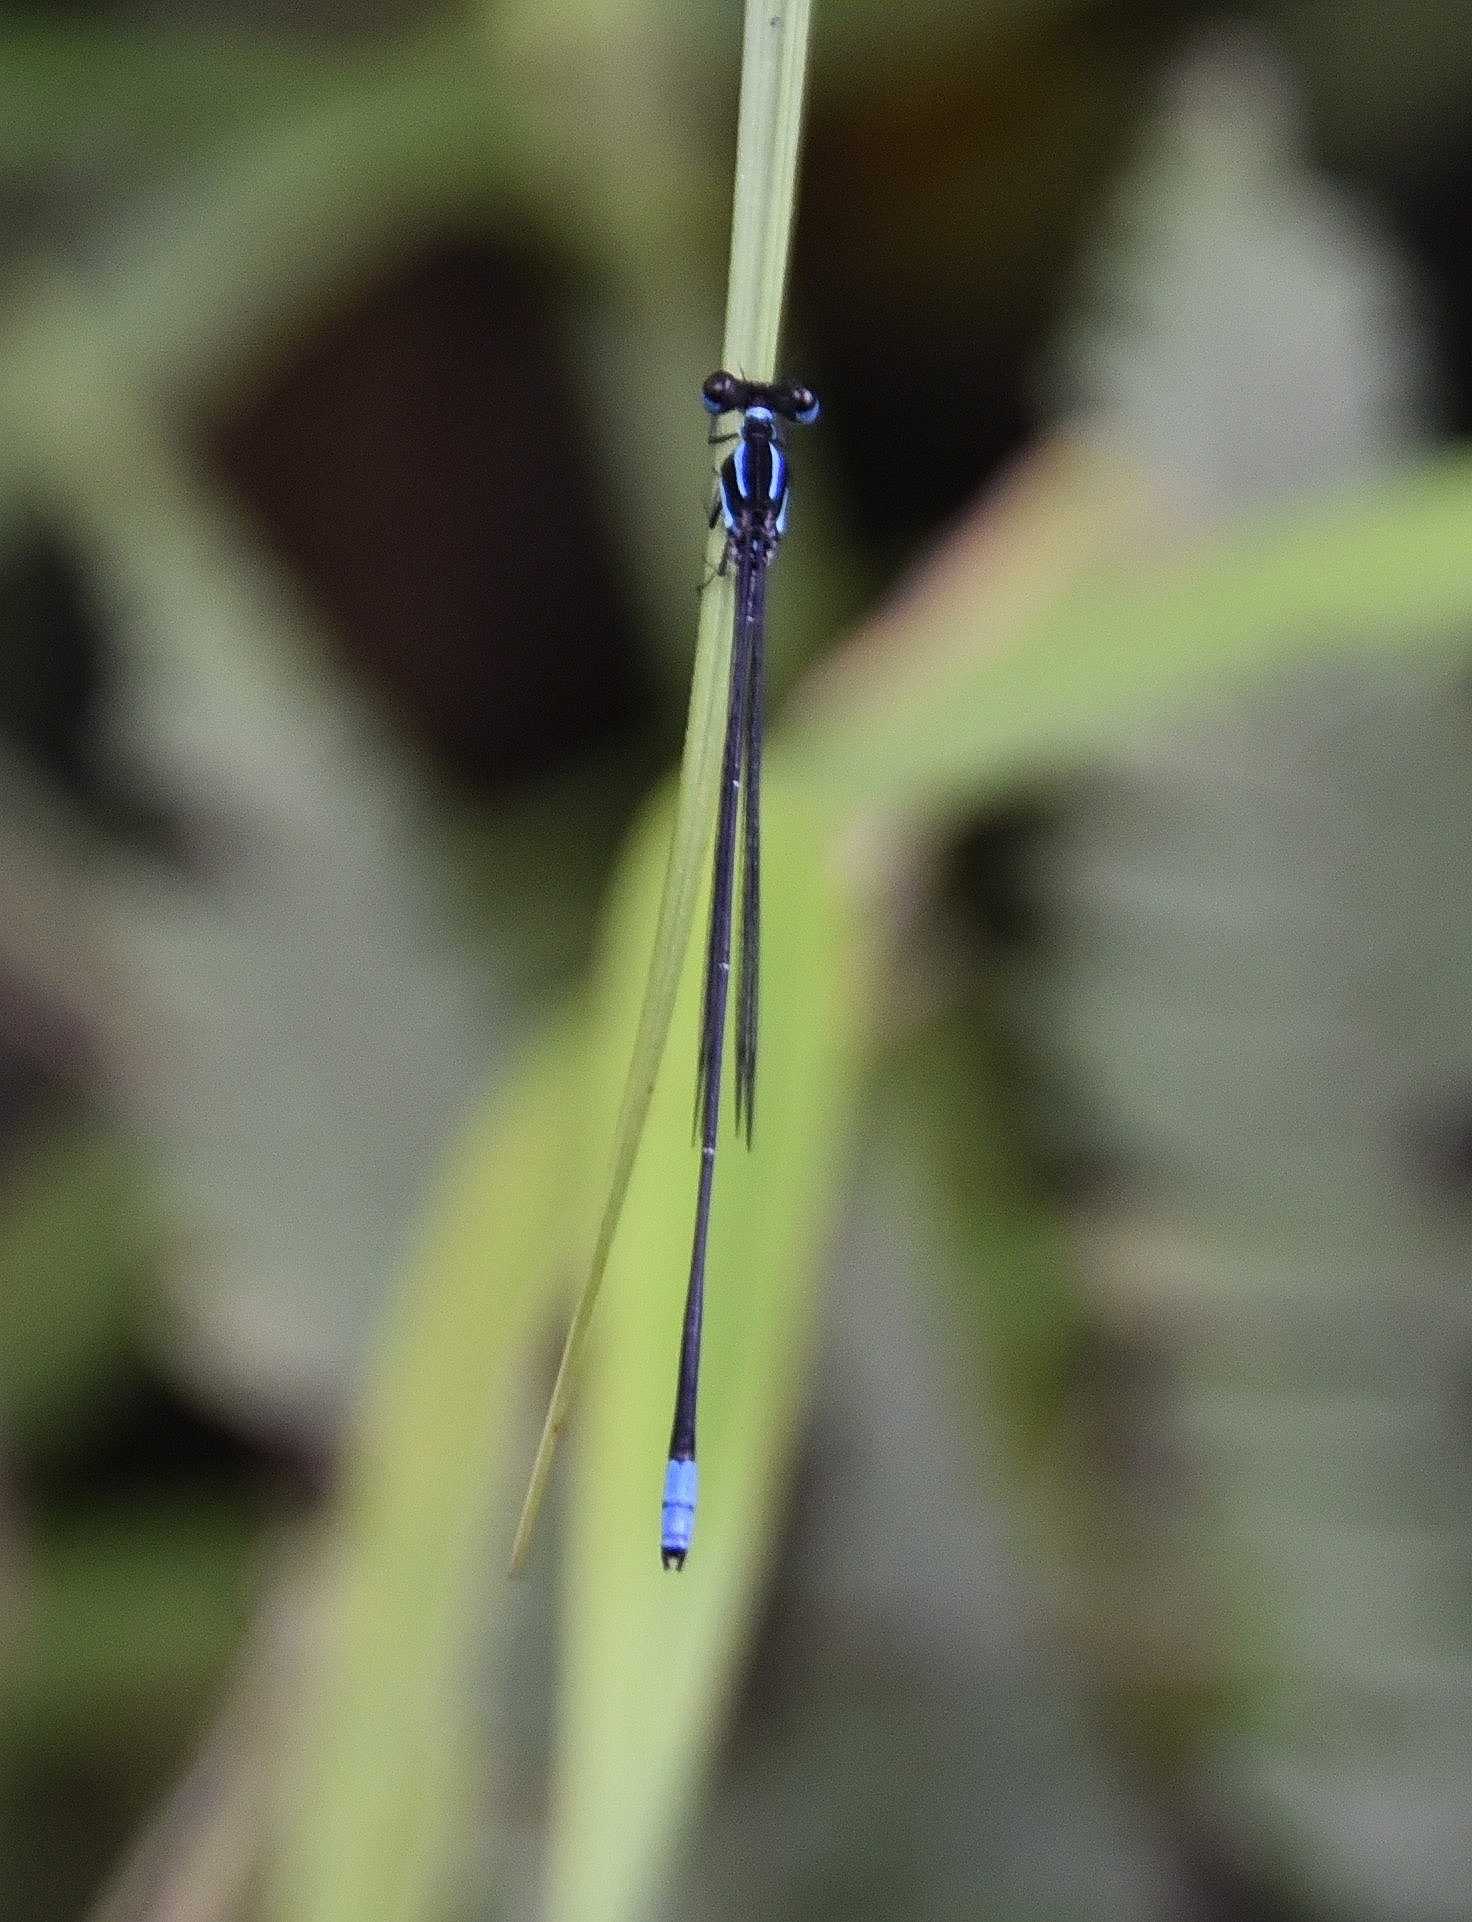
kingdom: Animalia
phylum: Arthropoda
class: Insecta
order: Odonata
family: Platycnemididae
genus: Melanoneura
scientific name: Melanoneura bilineata
